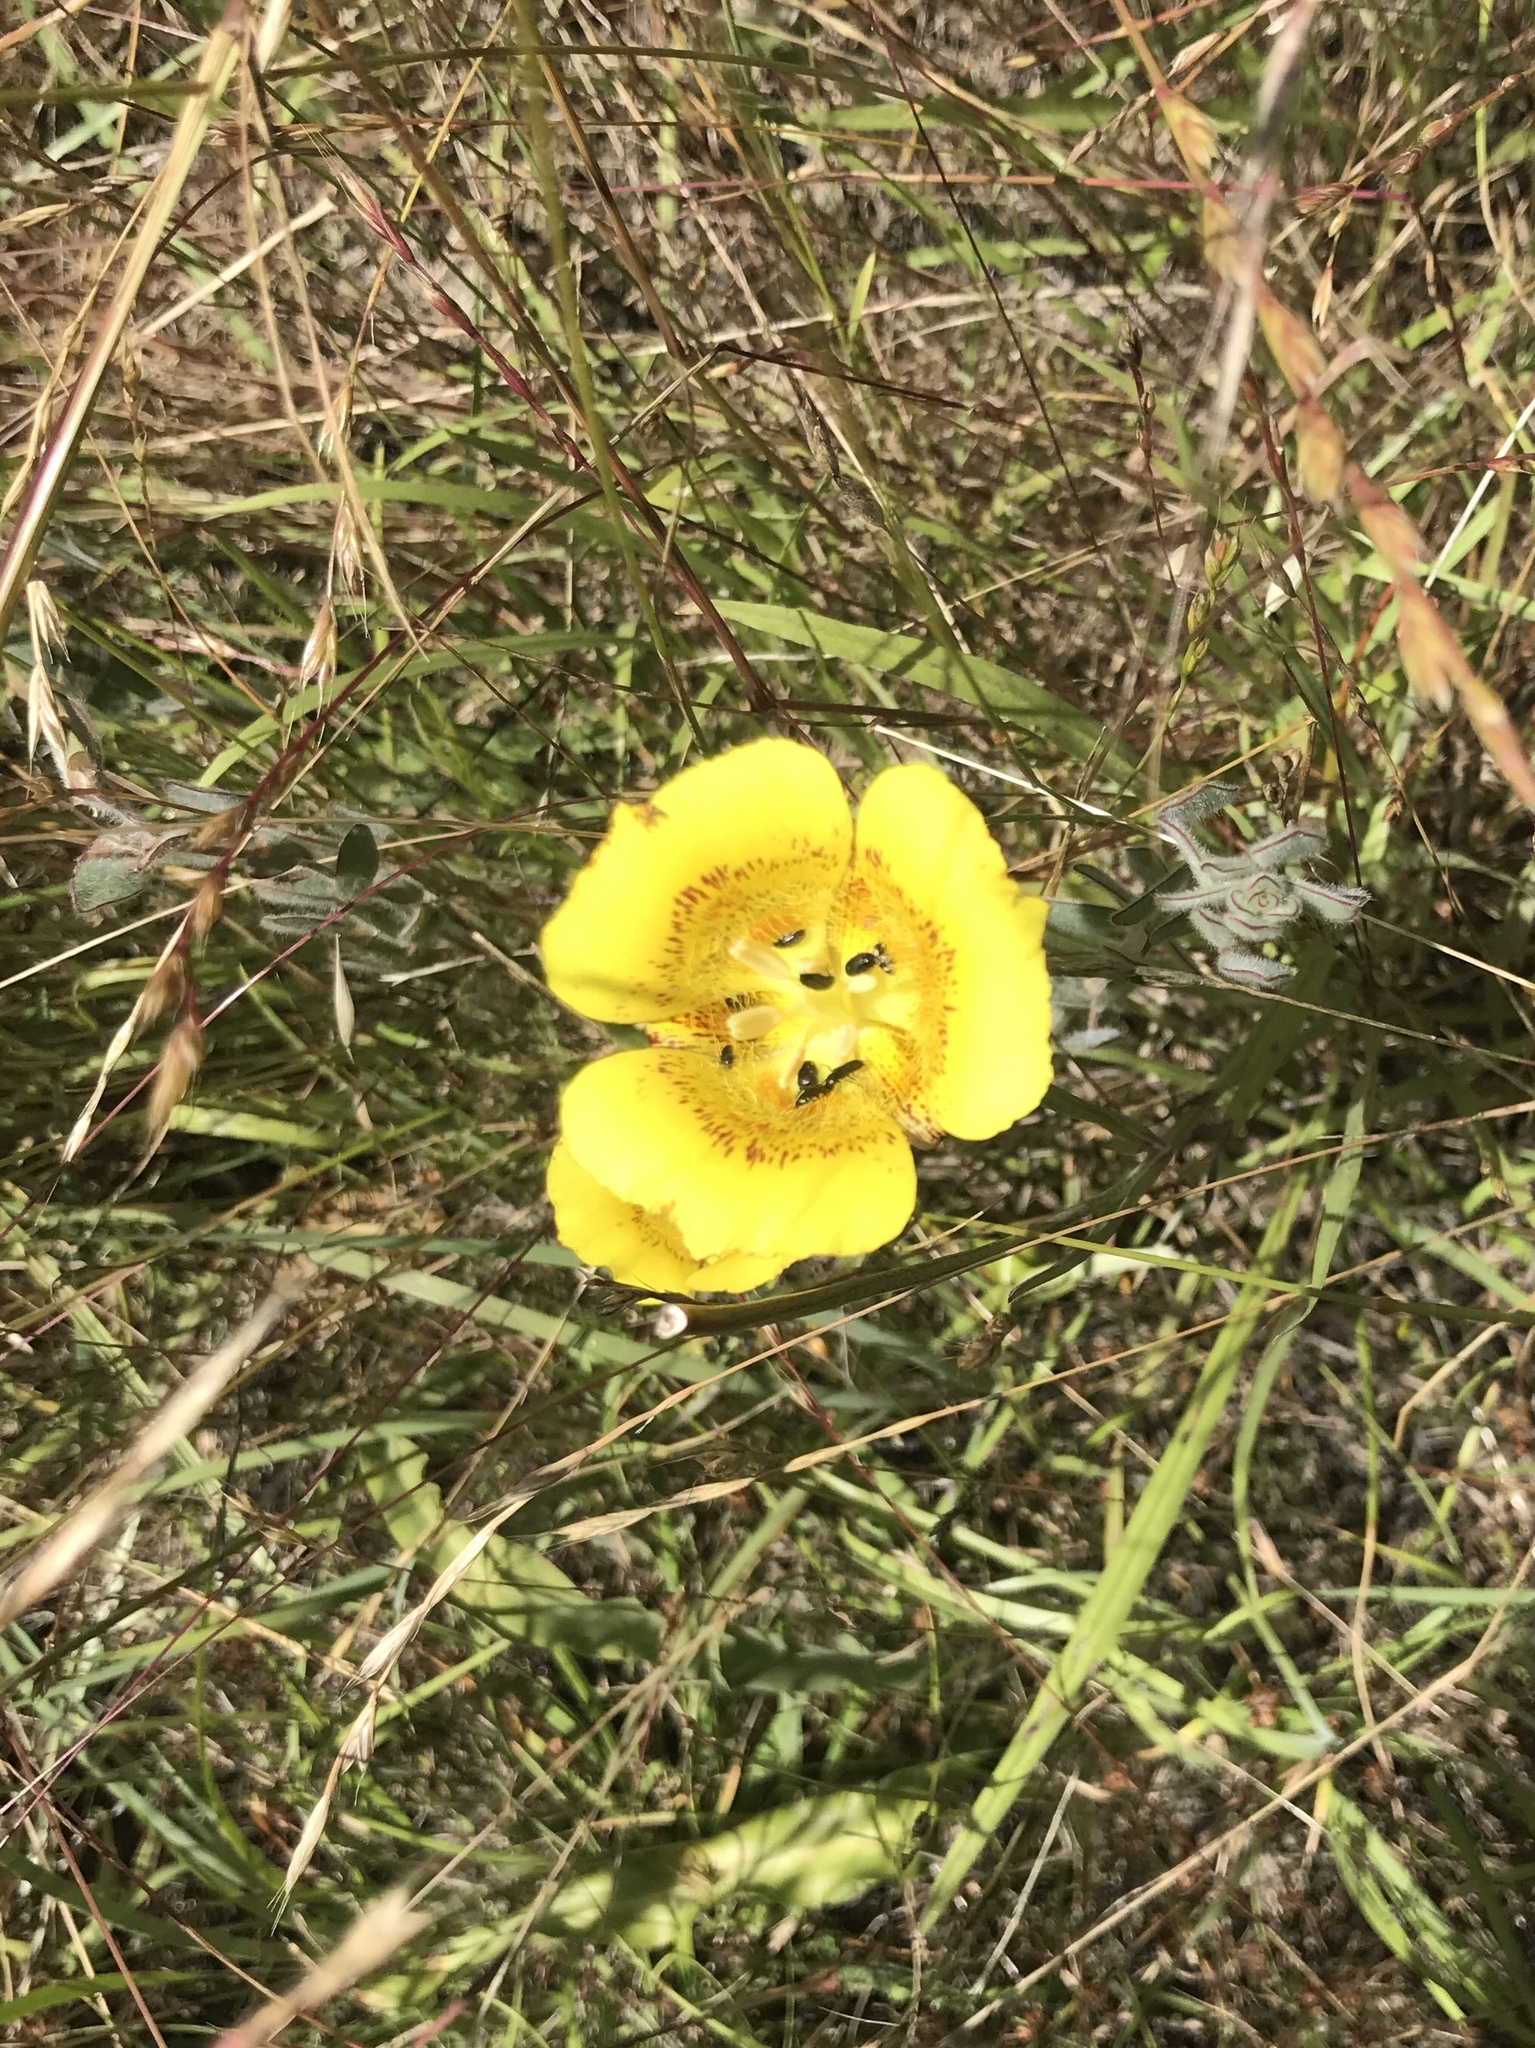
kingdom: Plantae
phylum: Tracheophyta
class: Liliopsida
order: Liliales
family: Liliaceae
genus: Calochortus
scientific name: Calochortus luteus
